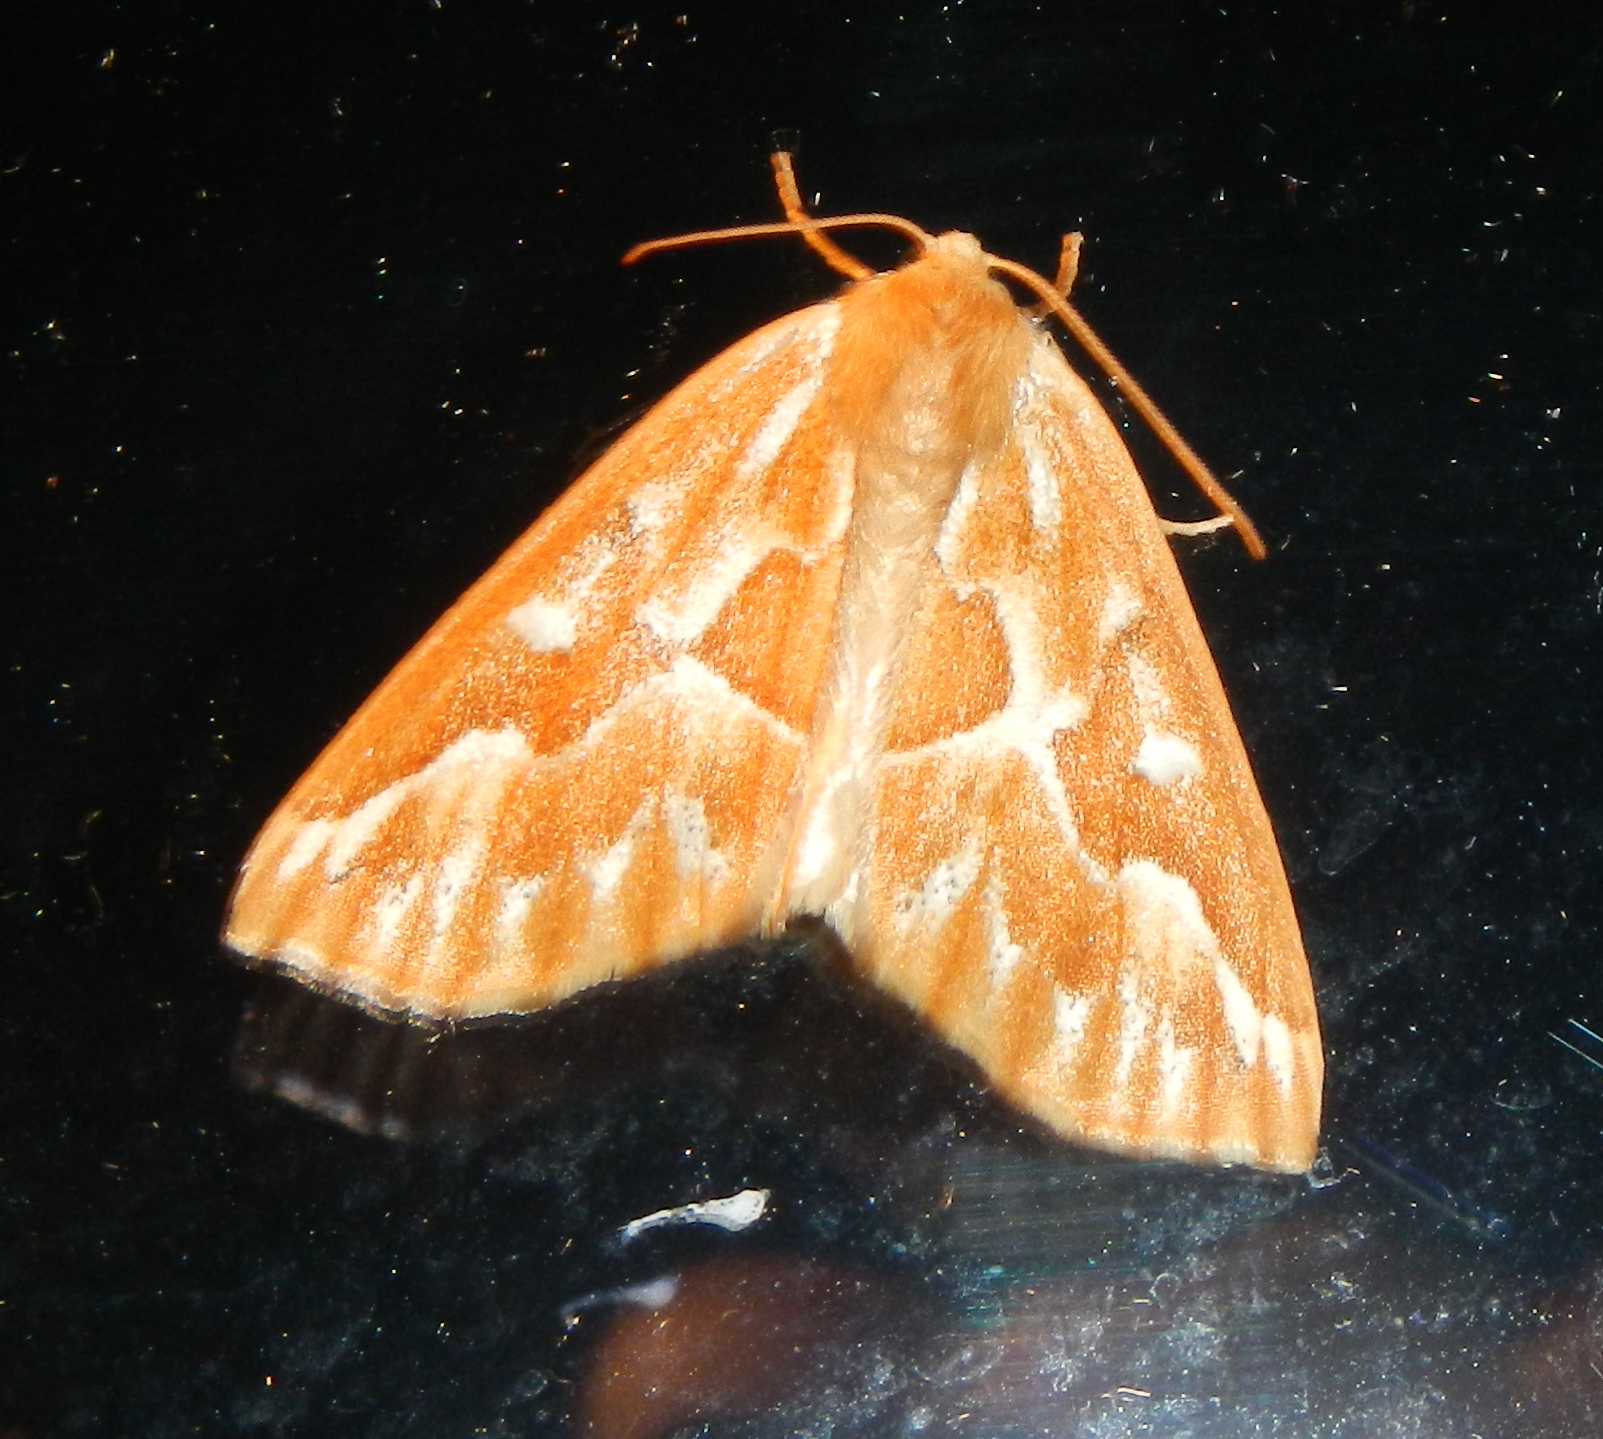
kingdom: Animalia
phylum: Arthropoda
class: Insecta
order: Lepidoptera
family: Geometridae
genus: Caripeta
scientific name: Caripeta piniata
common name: Northern pine looper moth
